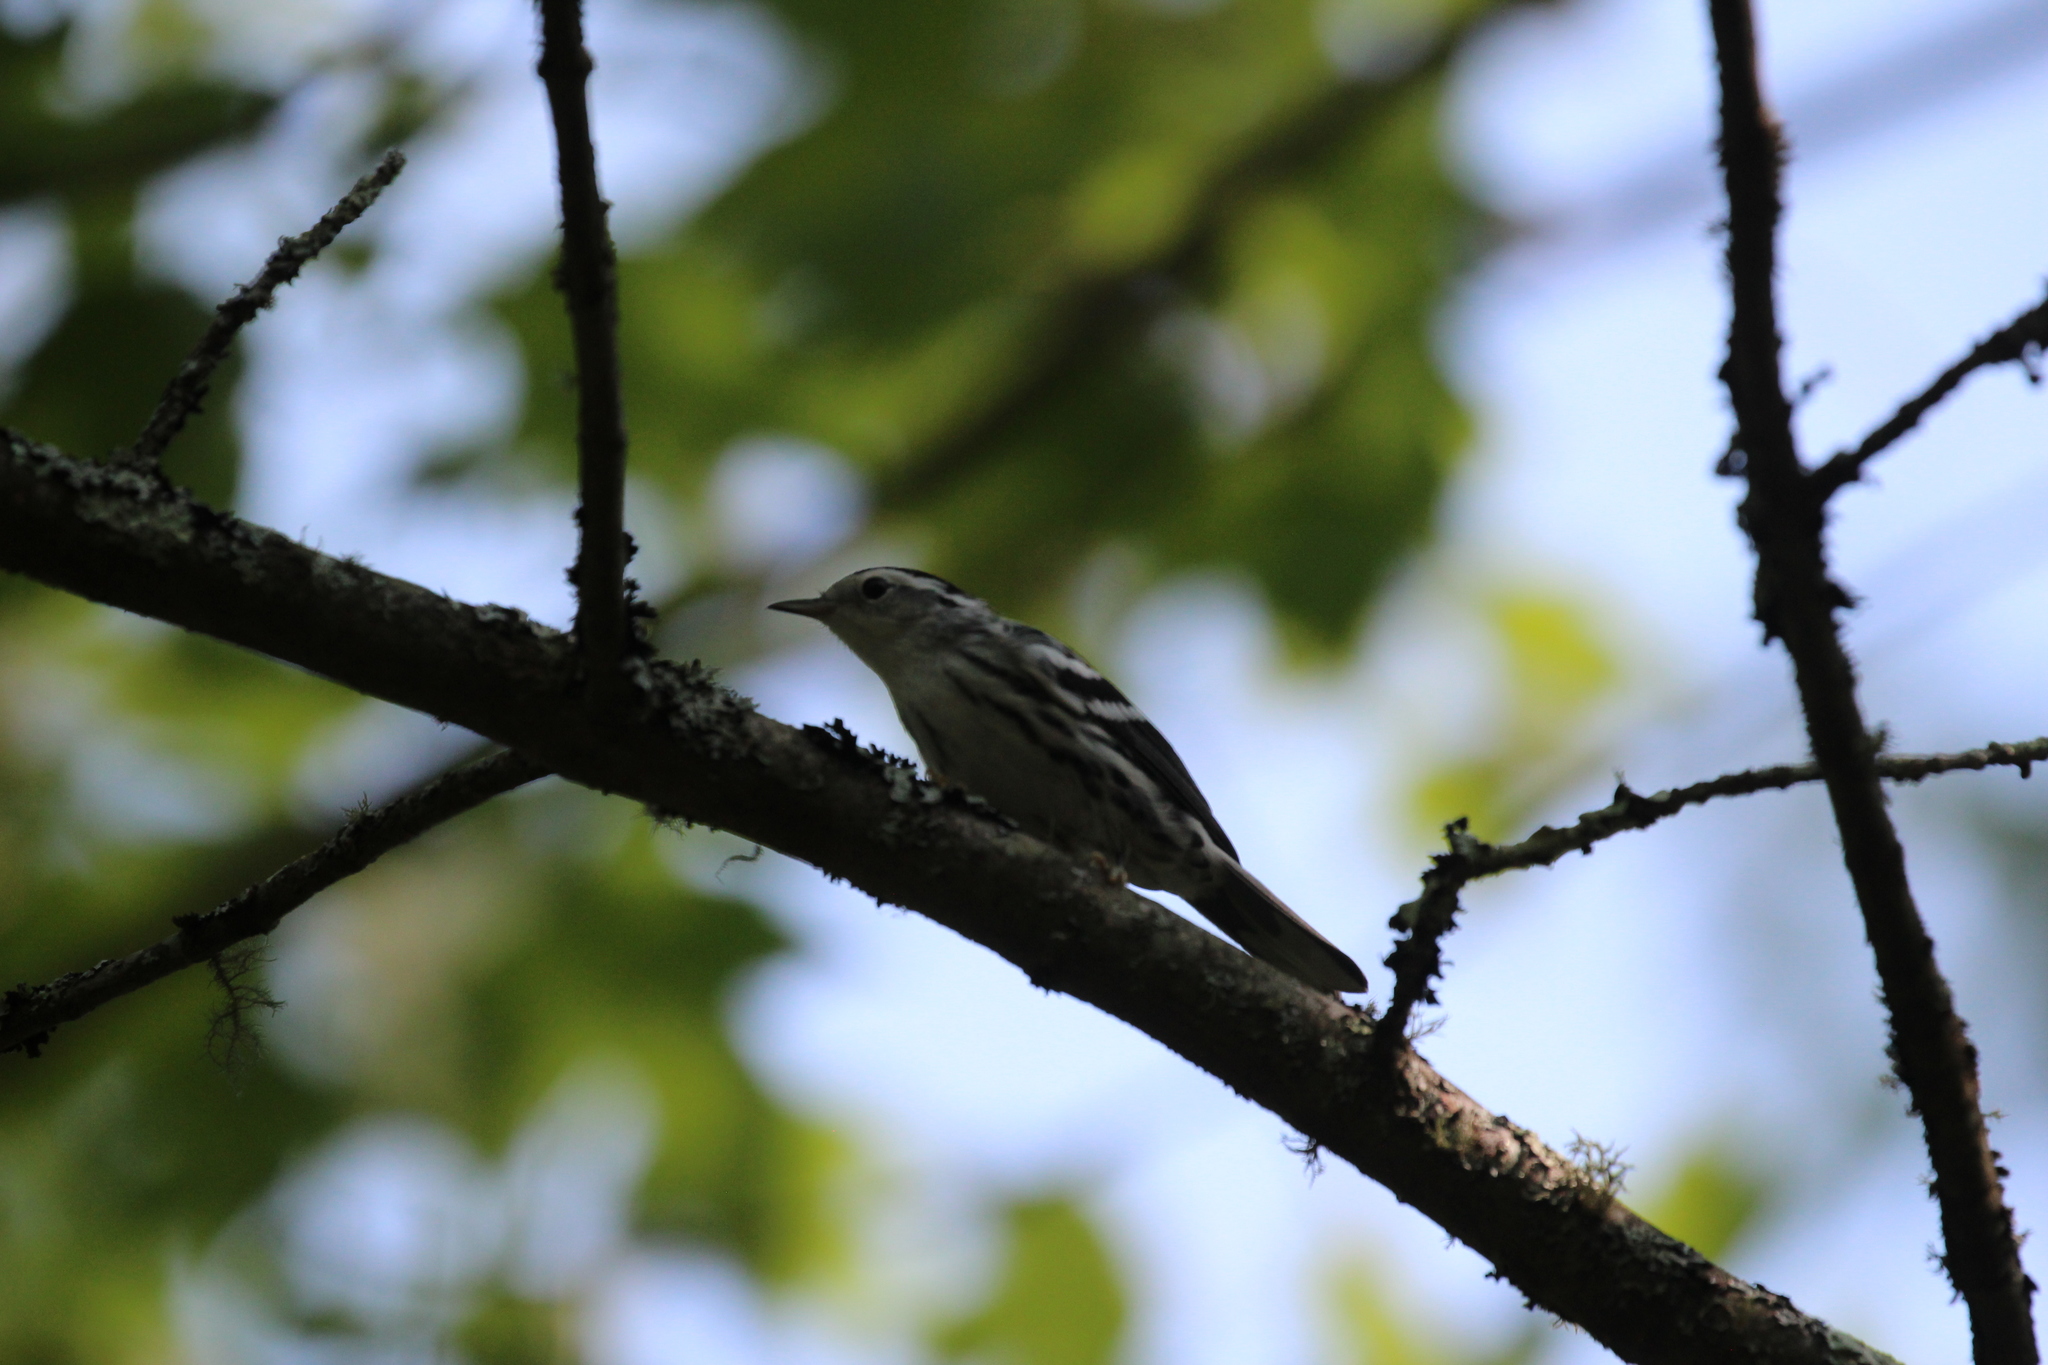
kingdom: Animalia
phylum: Chordata
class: Aves
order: Passeriformes
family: Parulidae
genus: Mniotilta
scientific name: Mniotilta varia
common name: Black-and-white warbler
